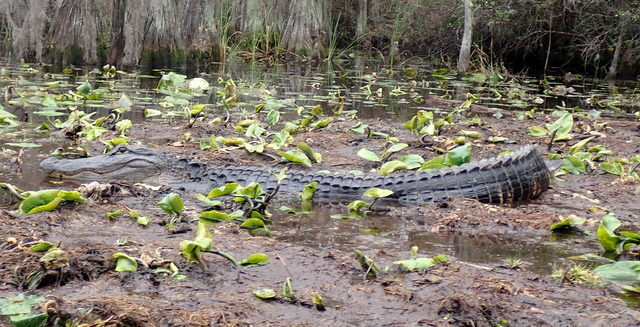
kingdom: Animalia
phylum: Chordata
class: Crocodylia
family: Alligatoridae
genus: Alligator
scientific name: Alligator mississippiensis
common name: American alligator
